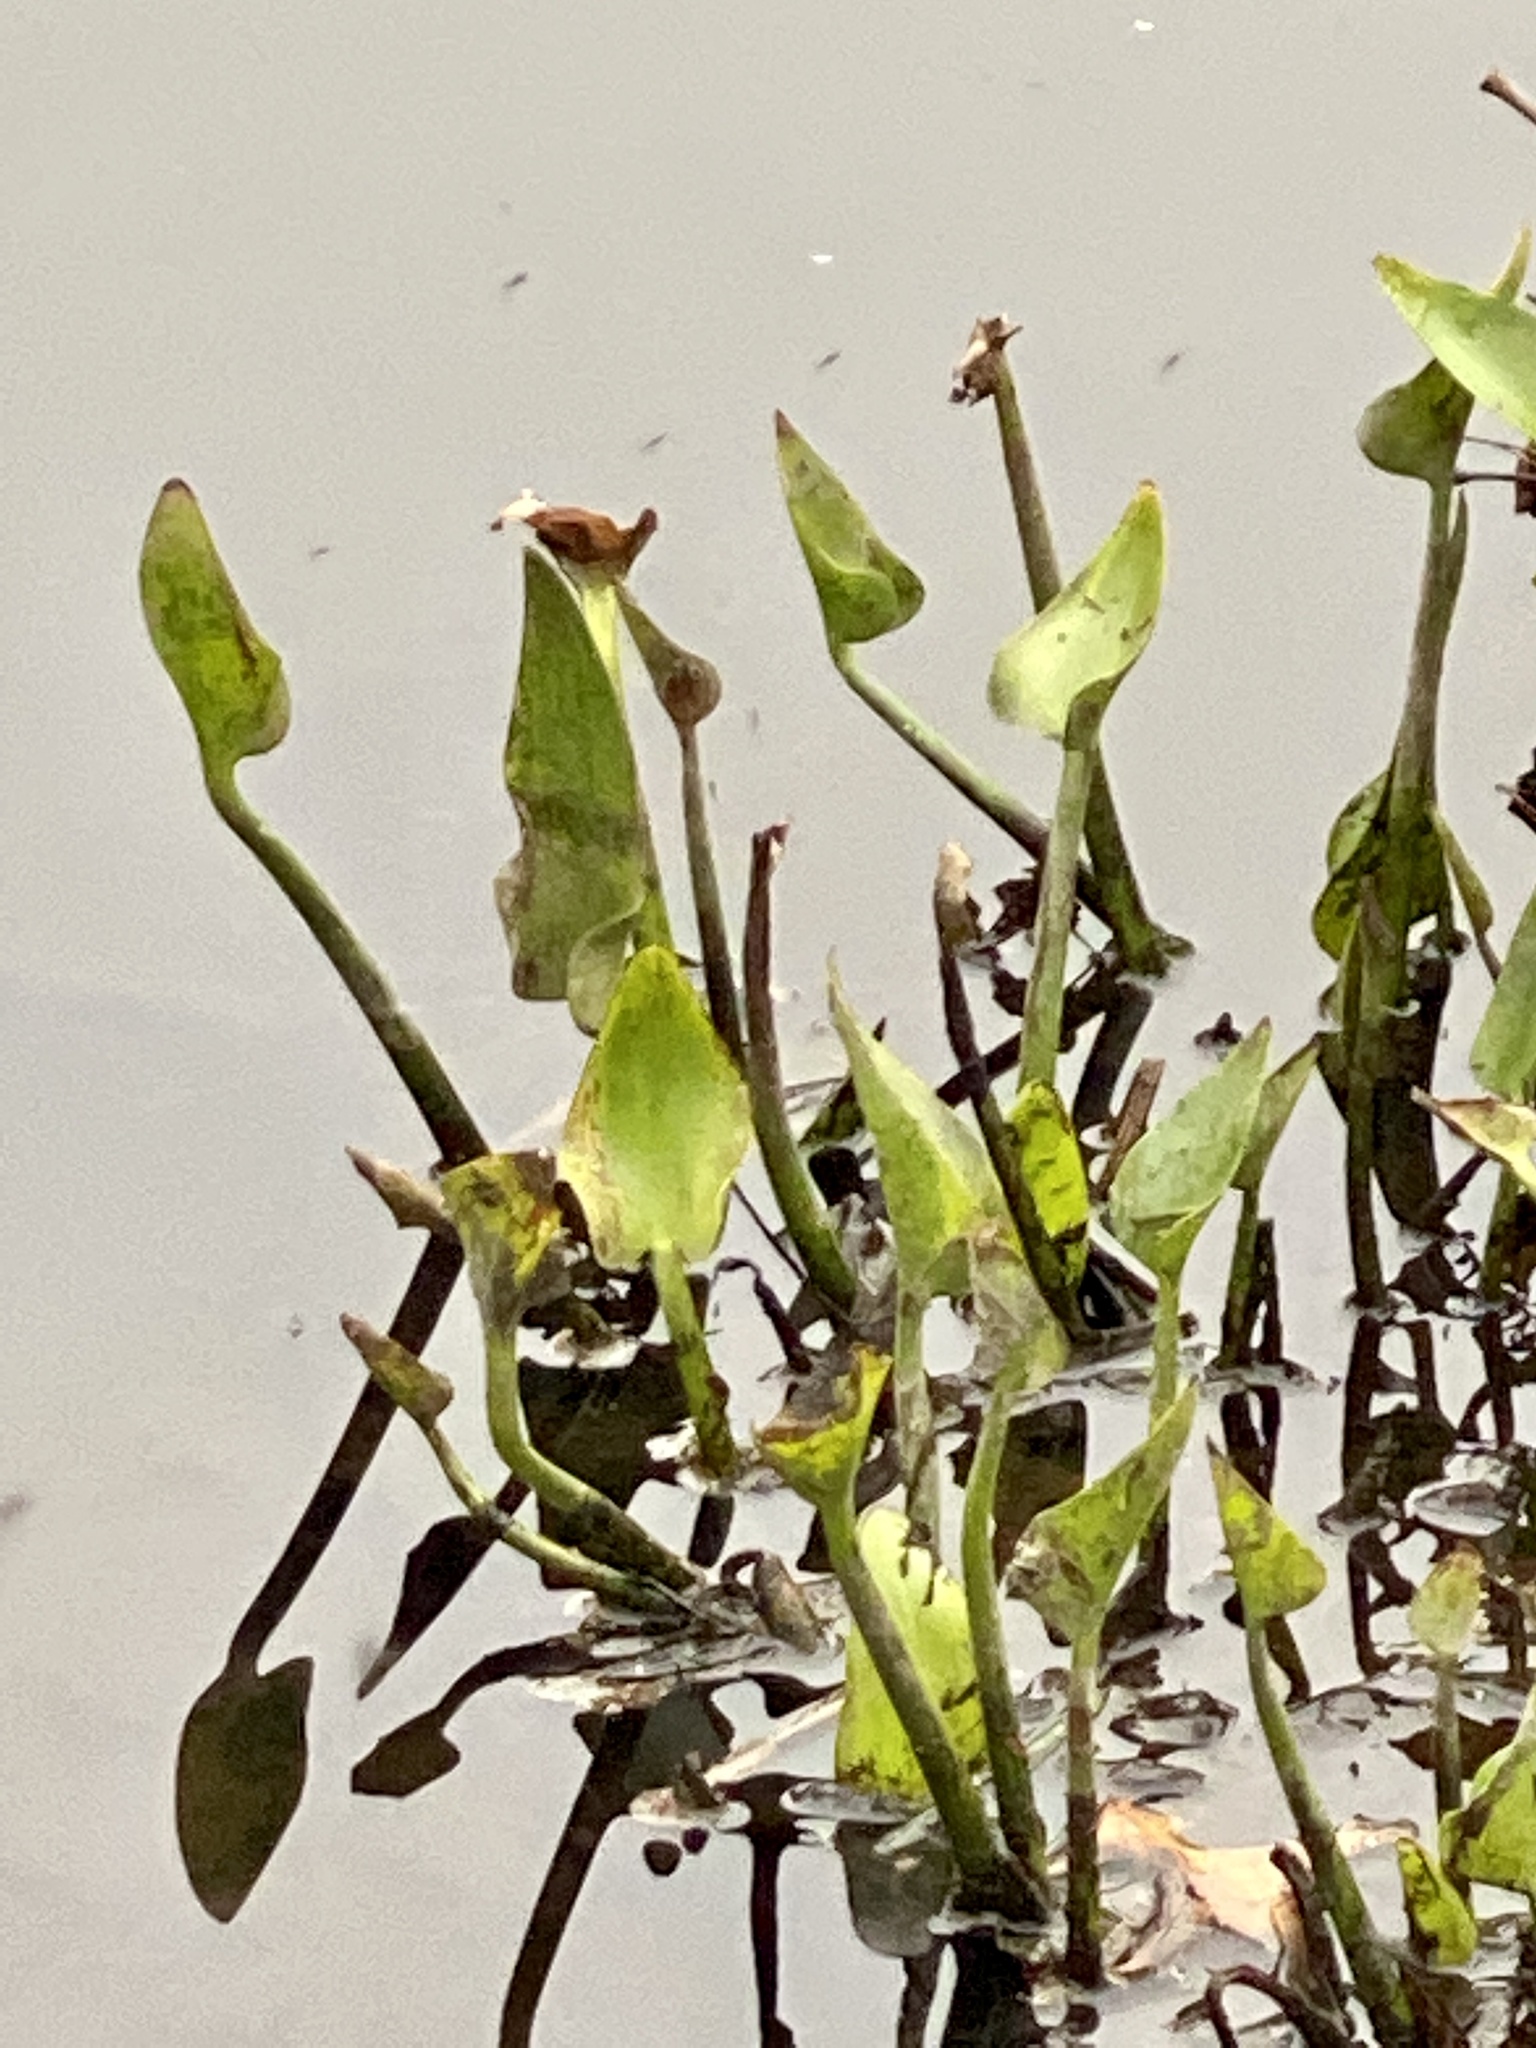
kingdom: Plantae
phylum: Tracheophyta
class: Liliopsida
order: Commelinales
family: Pontederiaceae
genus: Pontederia
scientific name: Pontederia cordata
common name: Pickerelweed
